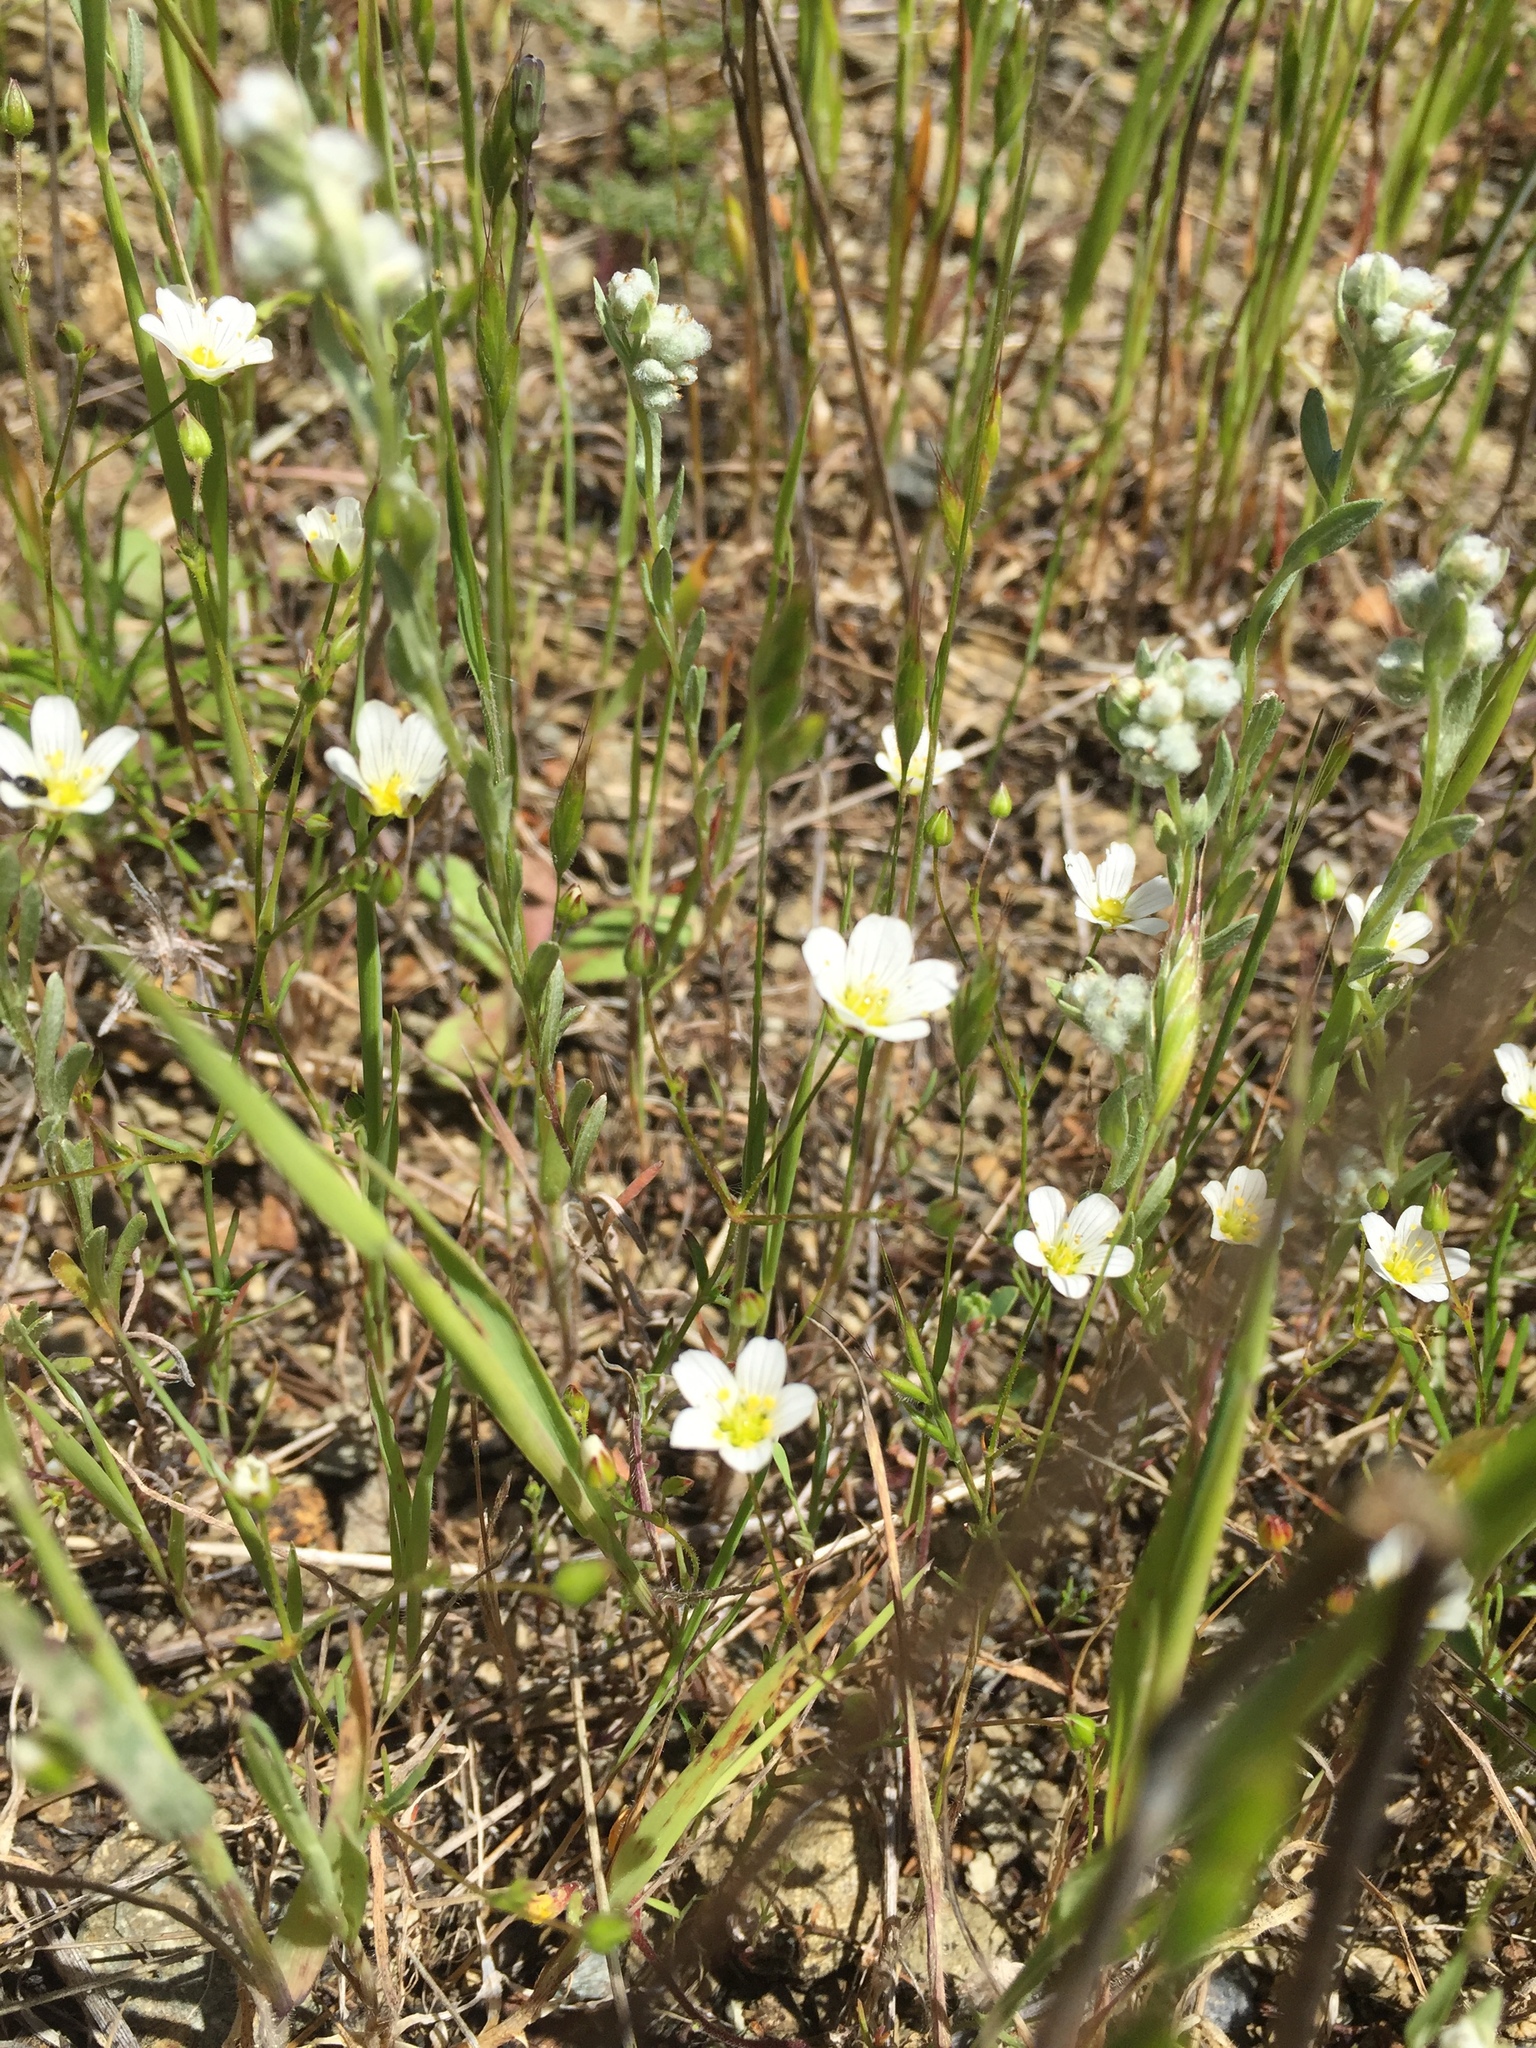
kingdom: Plantae
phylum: Tracheophyta
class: Magnoliopsida
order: Caryophyllales
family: Caryophyllaceae
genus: Sabulina
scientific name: Sabulina douglasii
